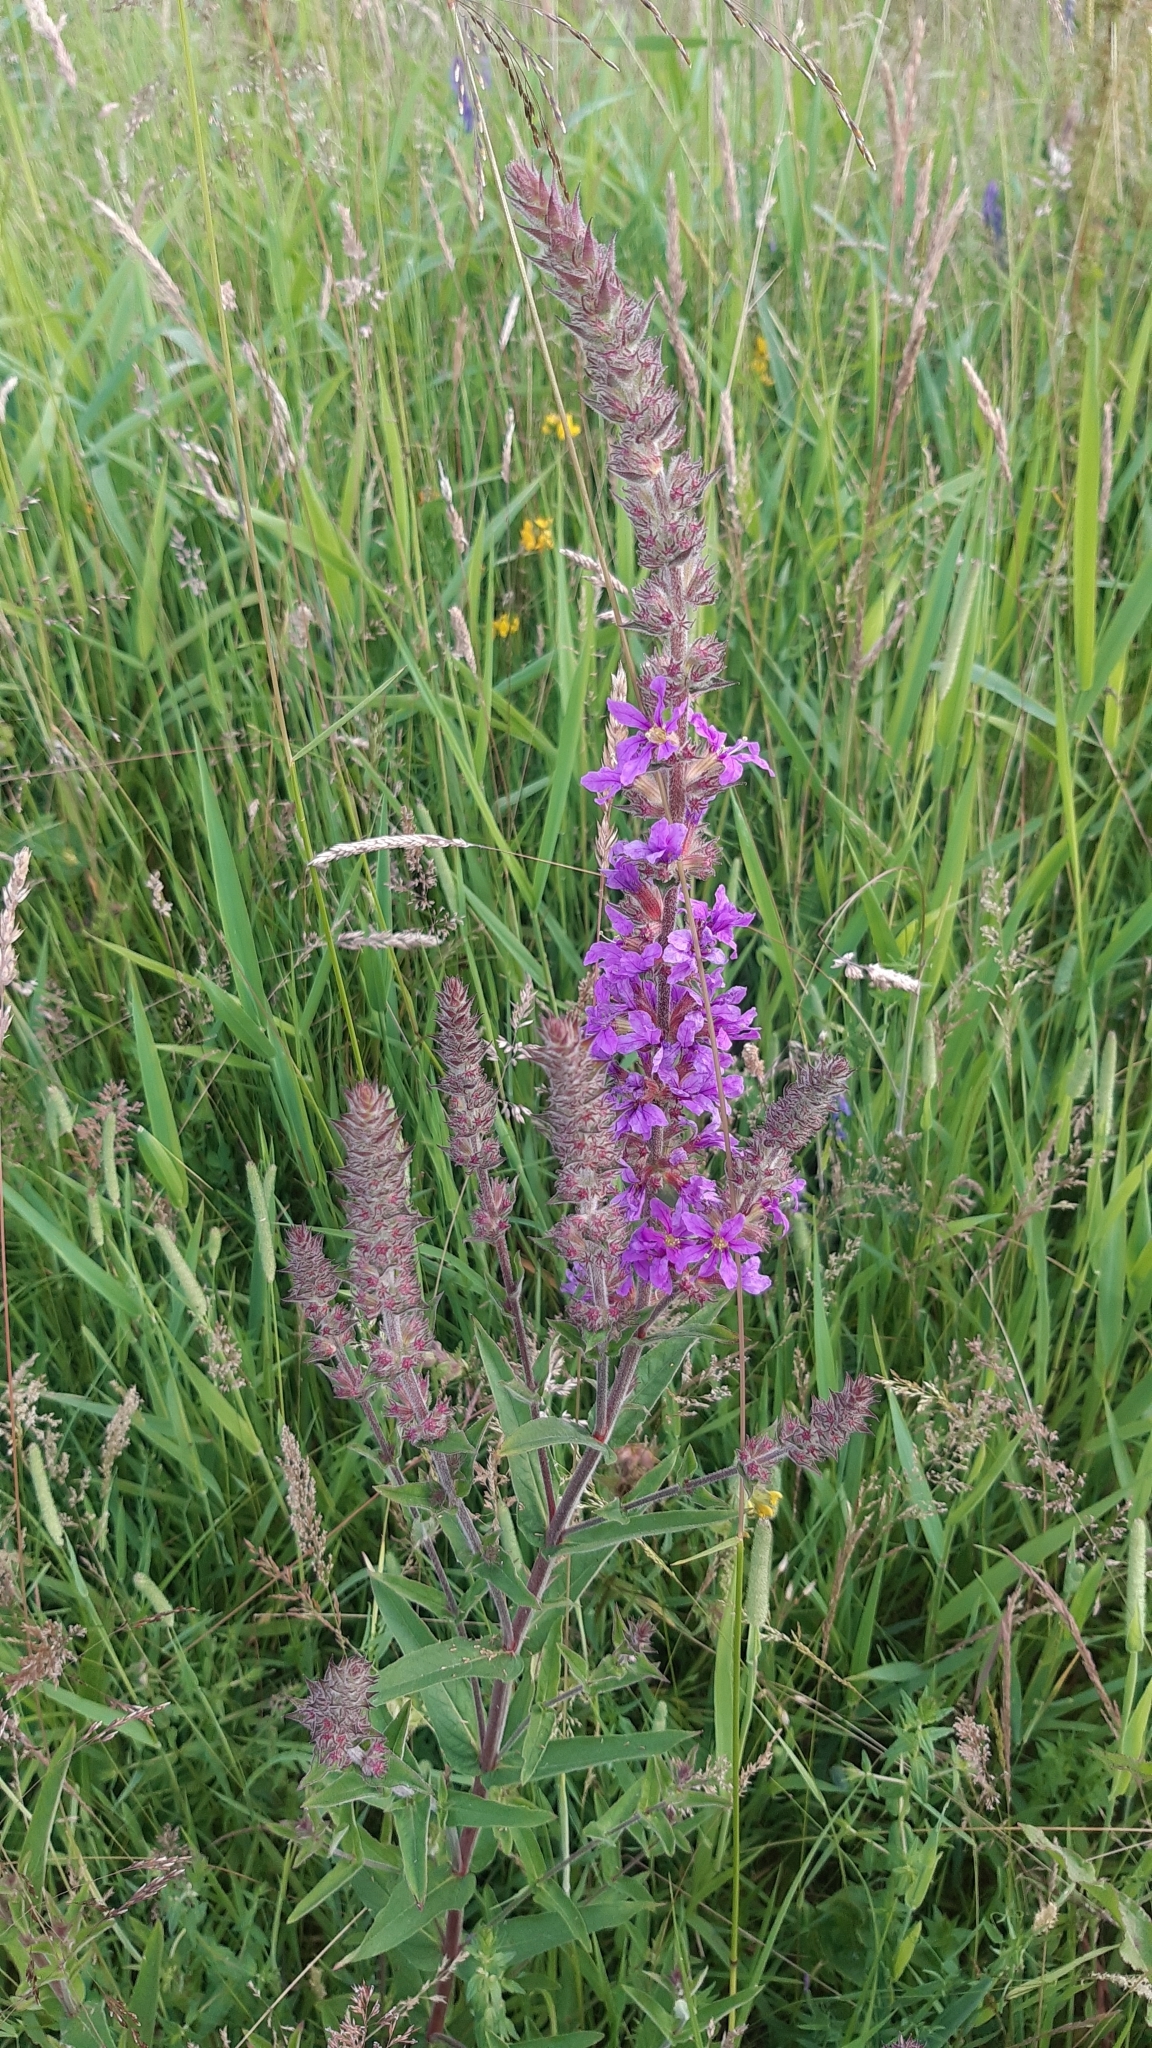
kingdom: Plantae
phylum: Tracheophyta
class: Magnoliopsida
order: Myrtales
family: Lythraceae
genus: Lythrum
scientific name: Lythrum salicaria
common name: Purple loosestrife
